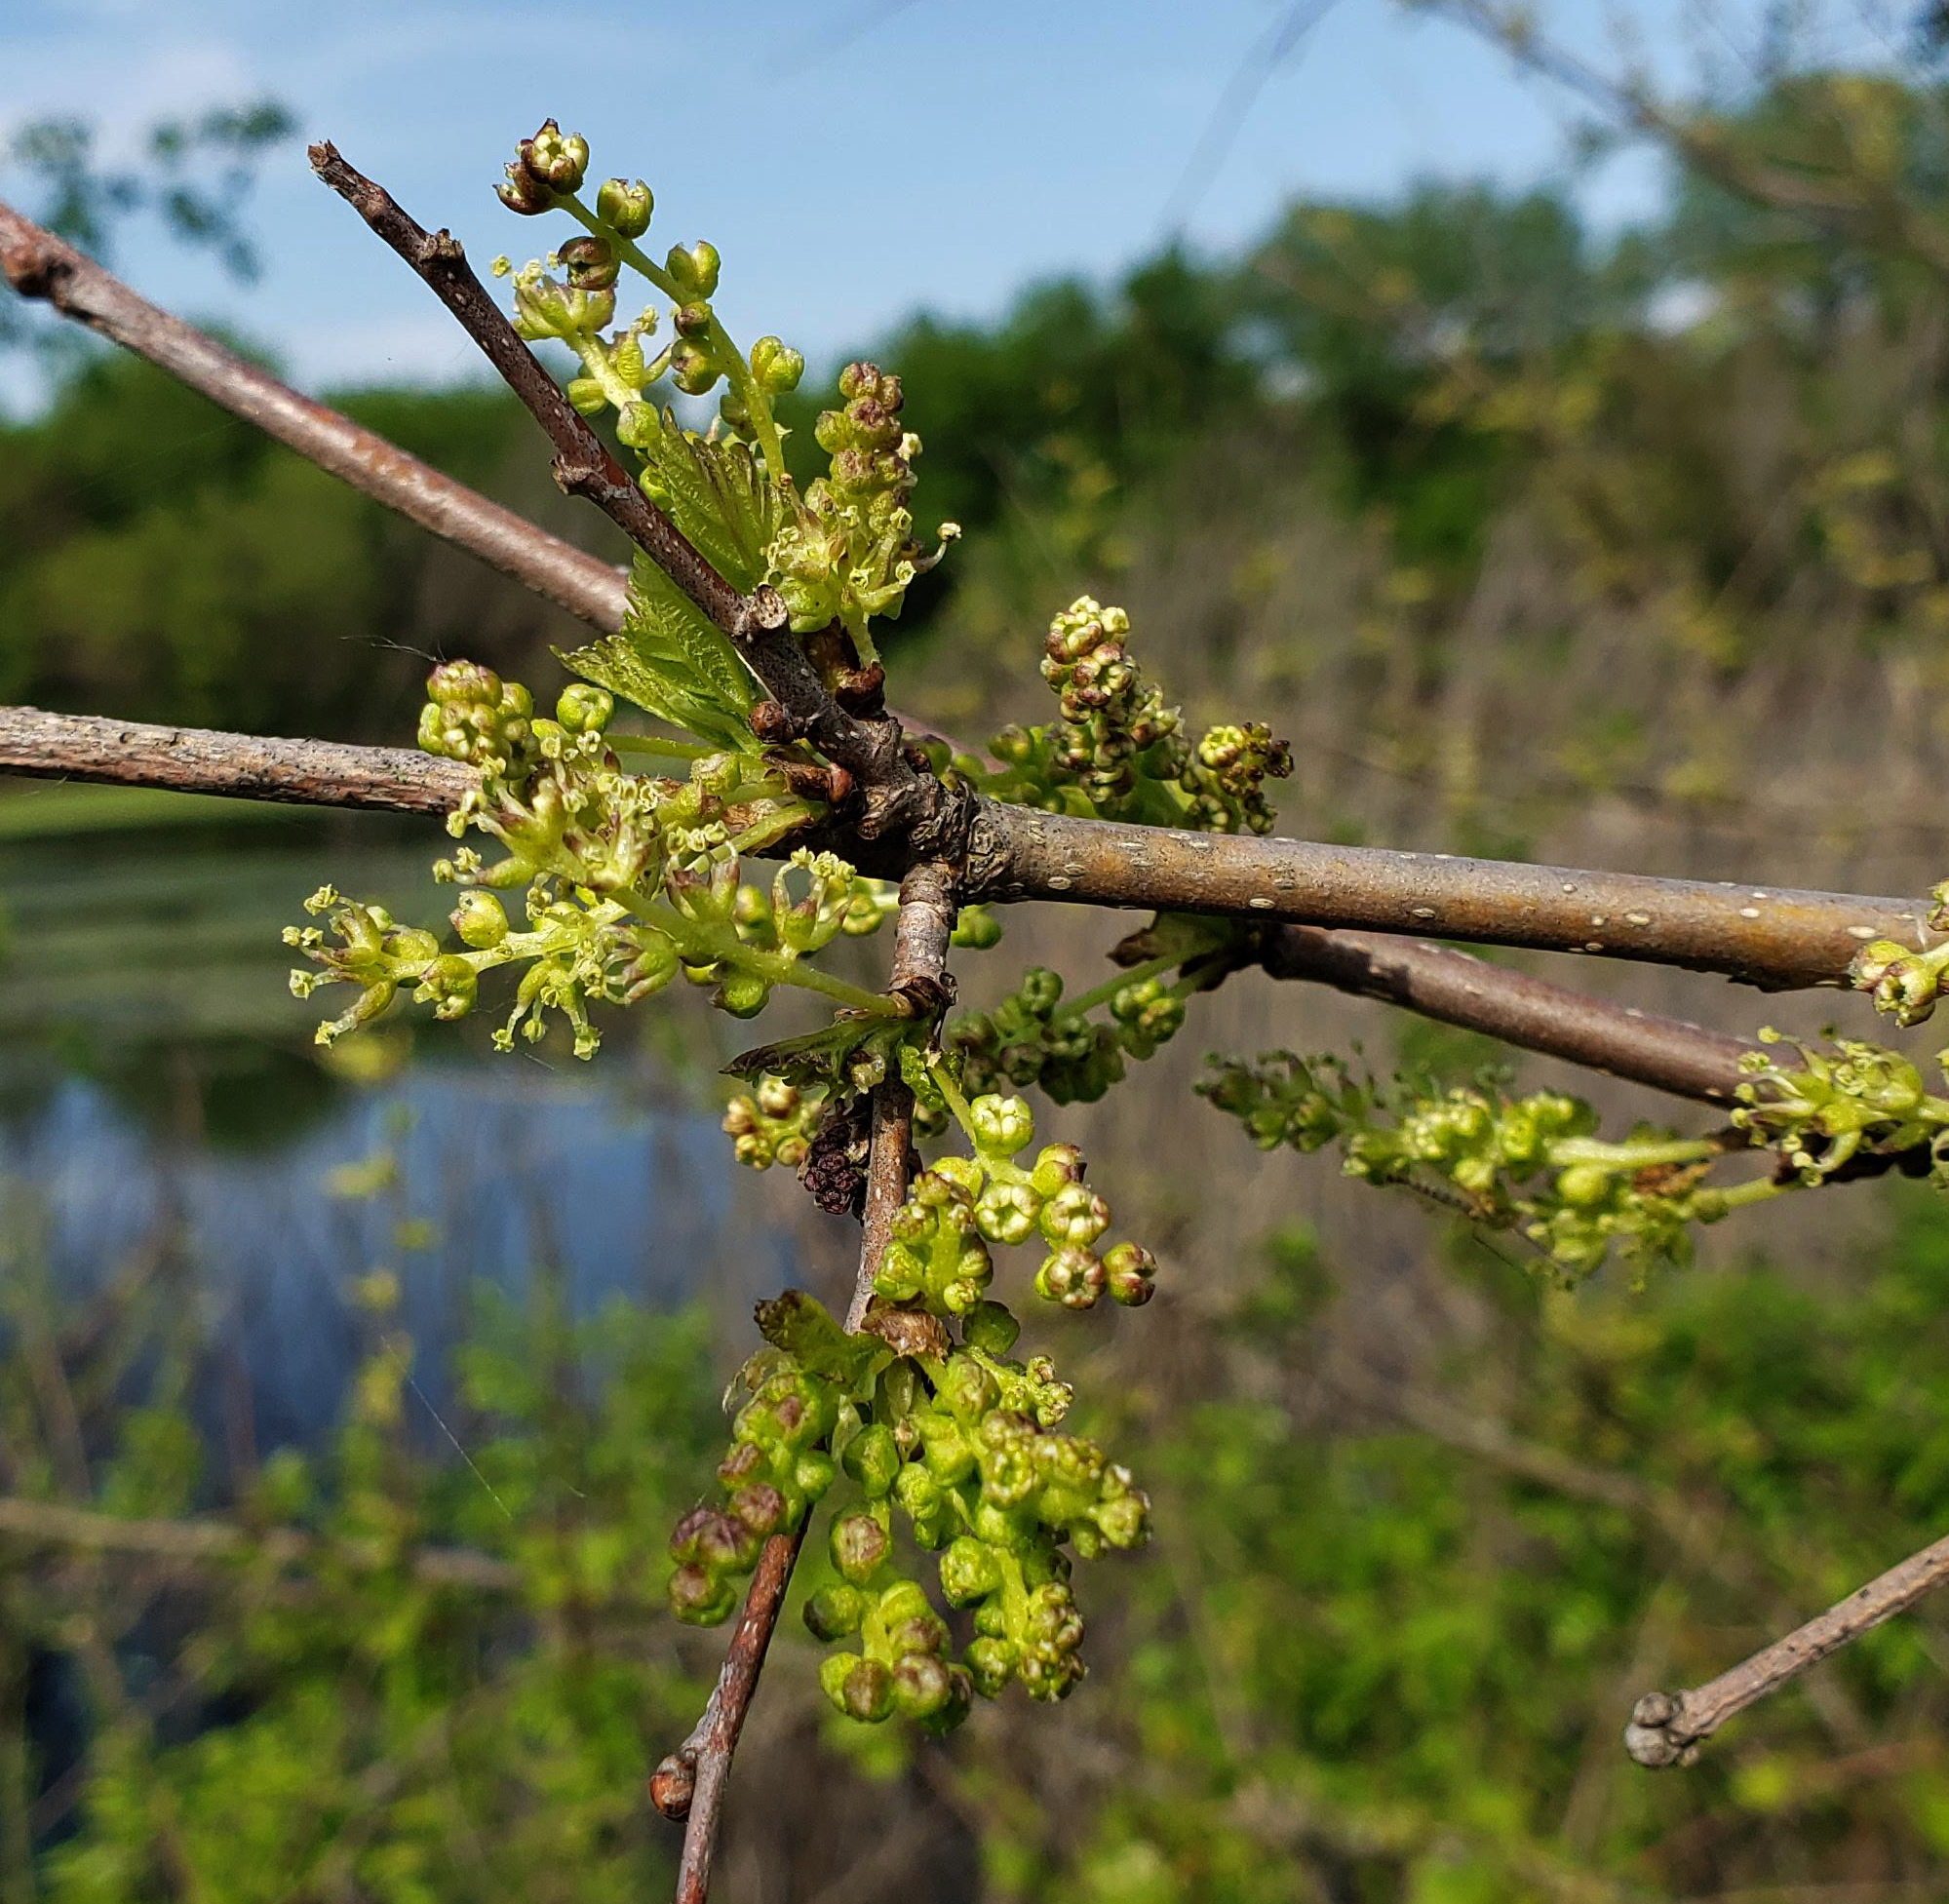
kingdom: Plantae
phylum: Tracheophyta
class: Magnoliopsida
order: Rosales
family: Moraceae
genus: Morus
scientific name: Morus alba
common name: White mulberry
